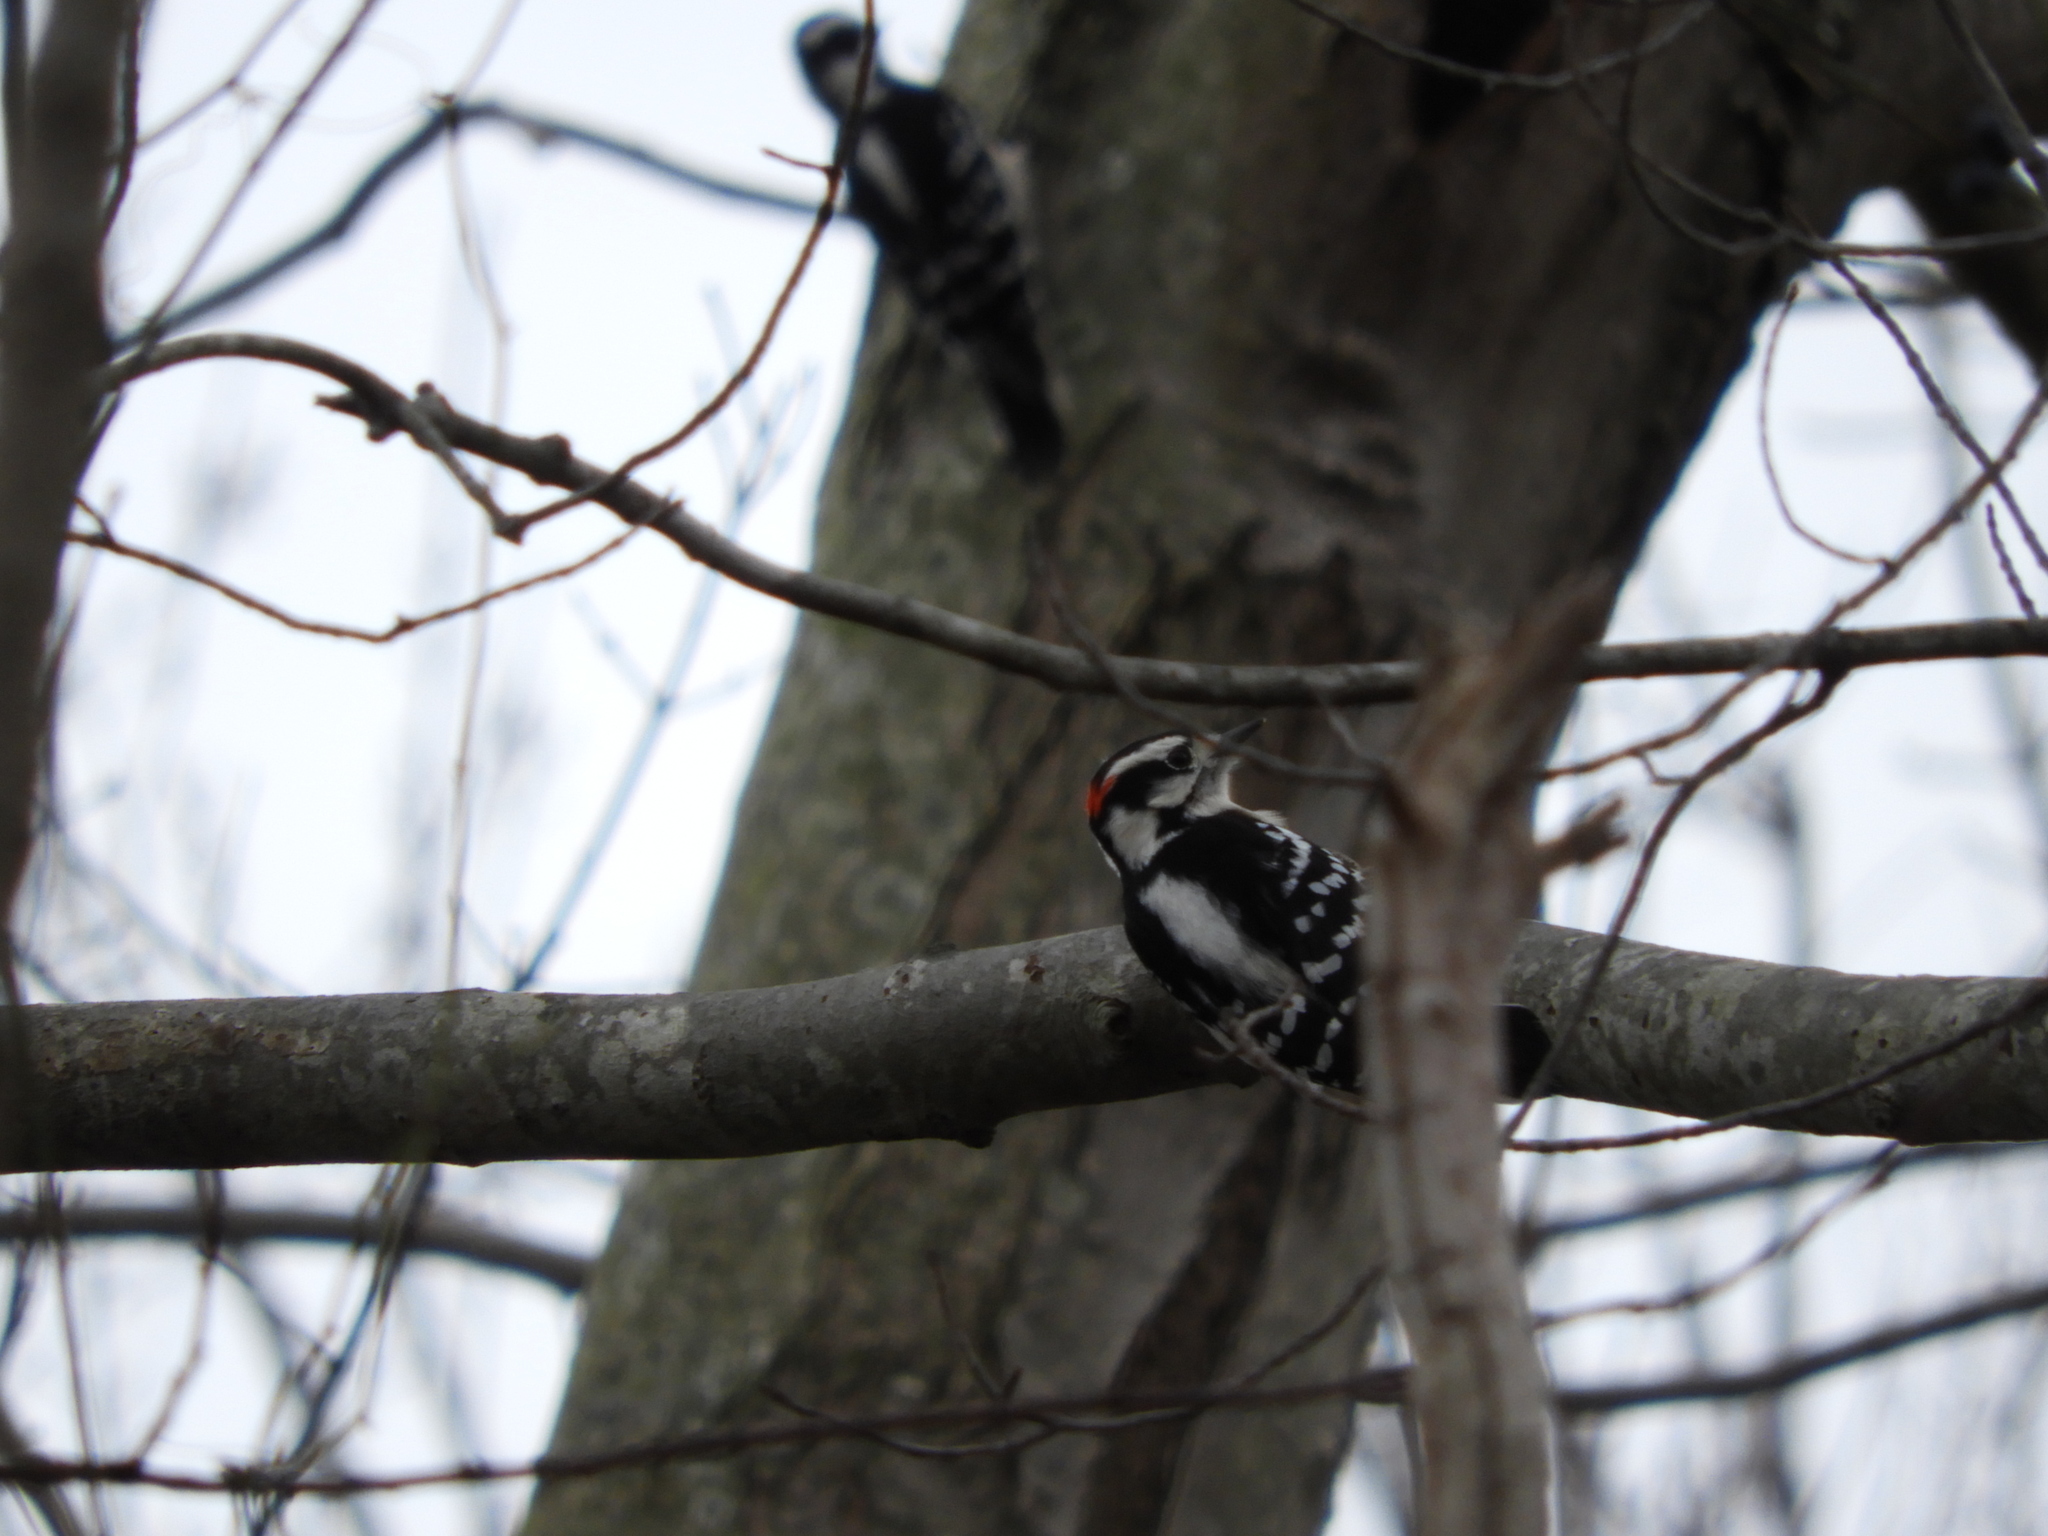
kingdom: Animalia
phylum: Chordata
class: Aves
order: Piciformes
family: Picidae
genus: Dryobates
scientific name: Dryobates pubescens
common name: Downy woodpecker
